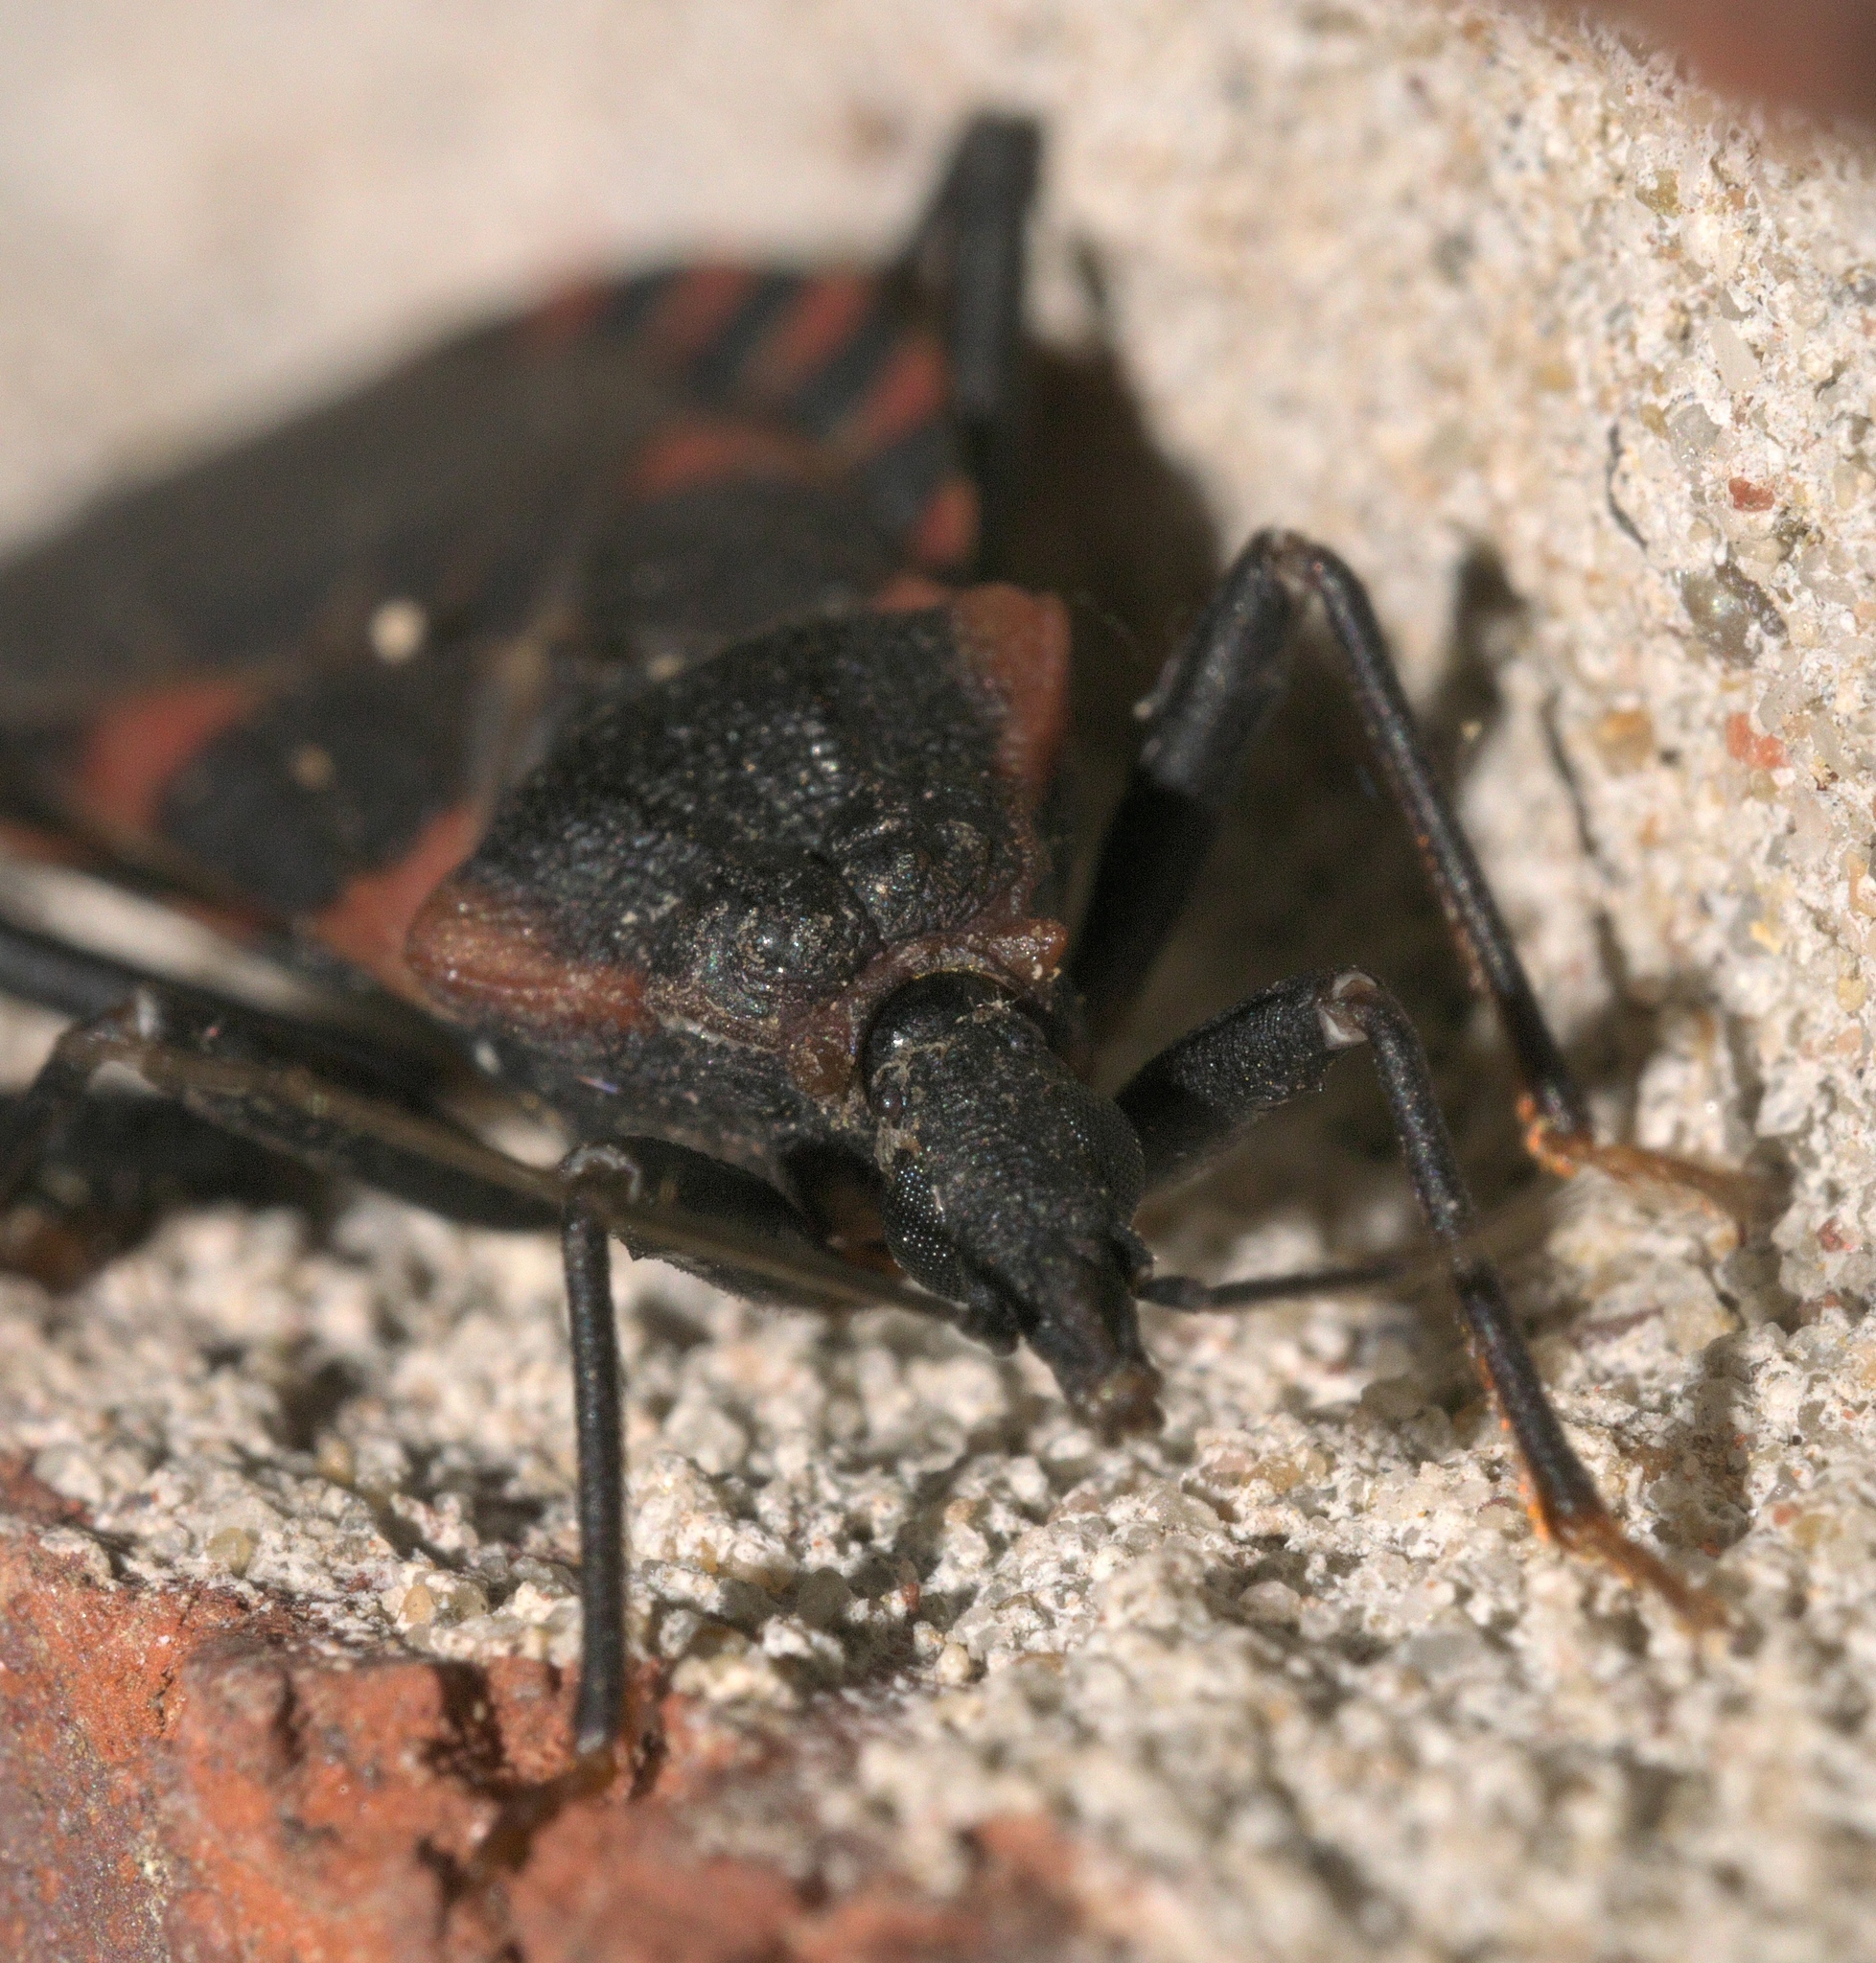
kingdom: Animalia
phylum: Arthropoda
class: Insecta
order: Hemiptera
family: Reduviidae
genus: Triatoma
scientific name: Triatoma sanguisuga
